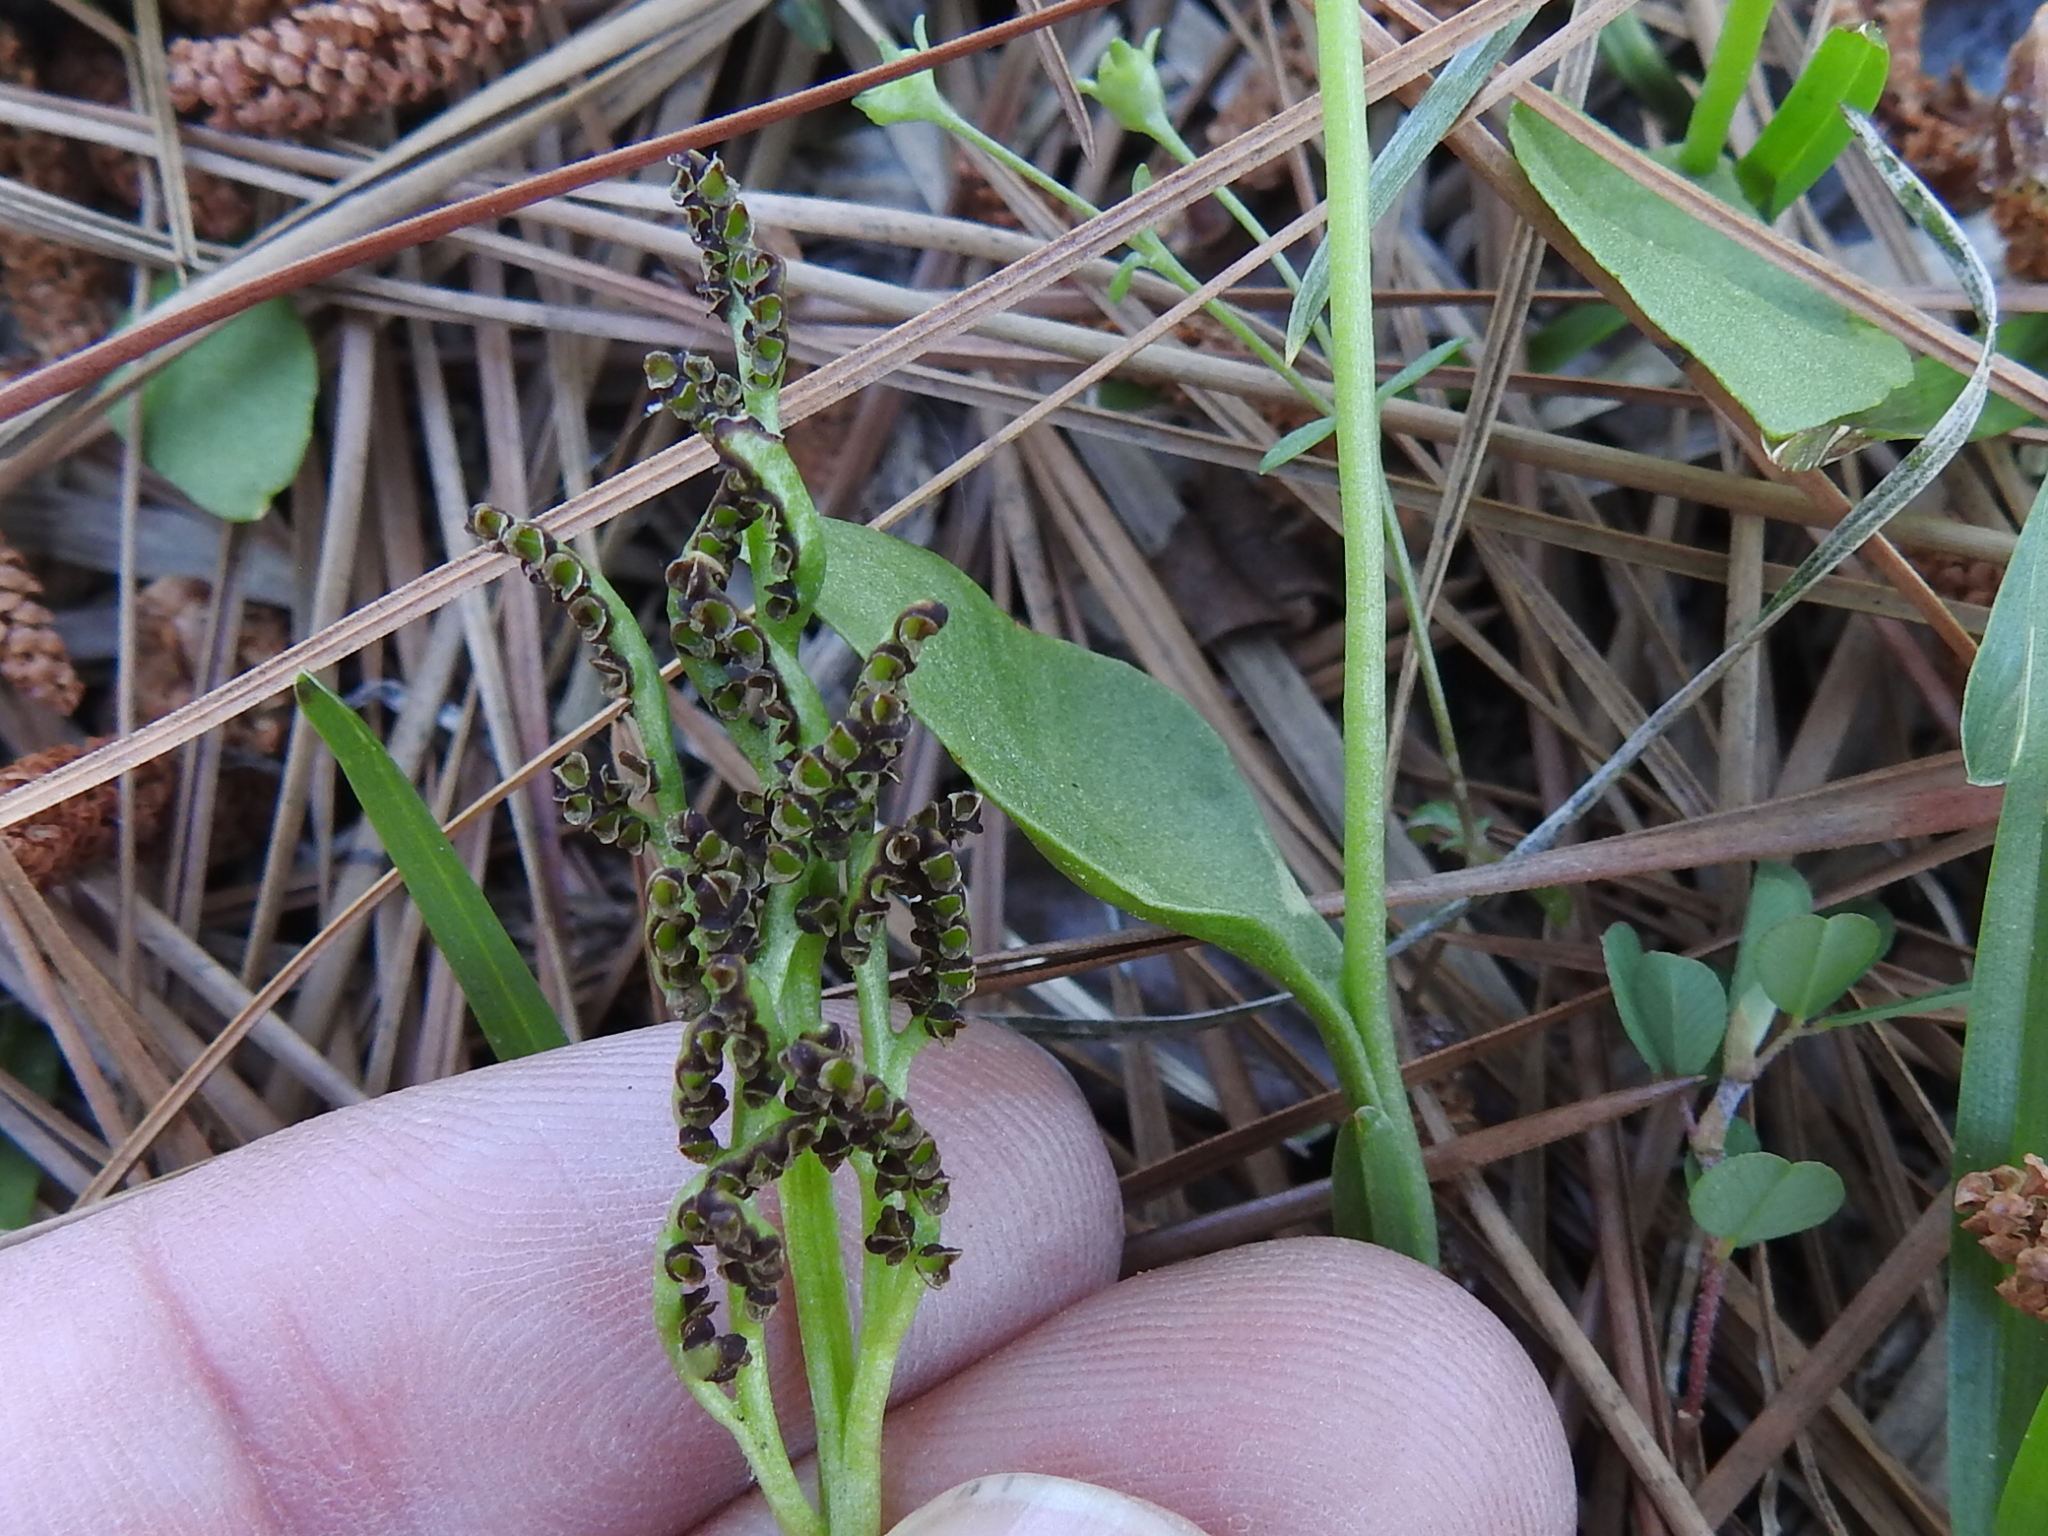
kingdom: Plantae
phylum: Tracheophyta
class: Polypodiopsida
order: Ophioglossales
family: Ophioglossaceae
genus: Sceptridium
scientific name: Sceptridium lunarioides
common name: Prostrate grapefern
